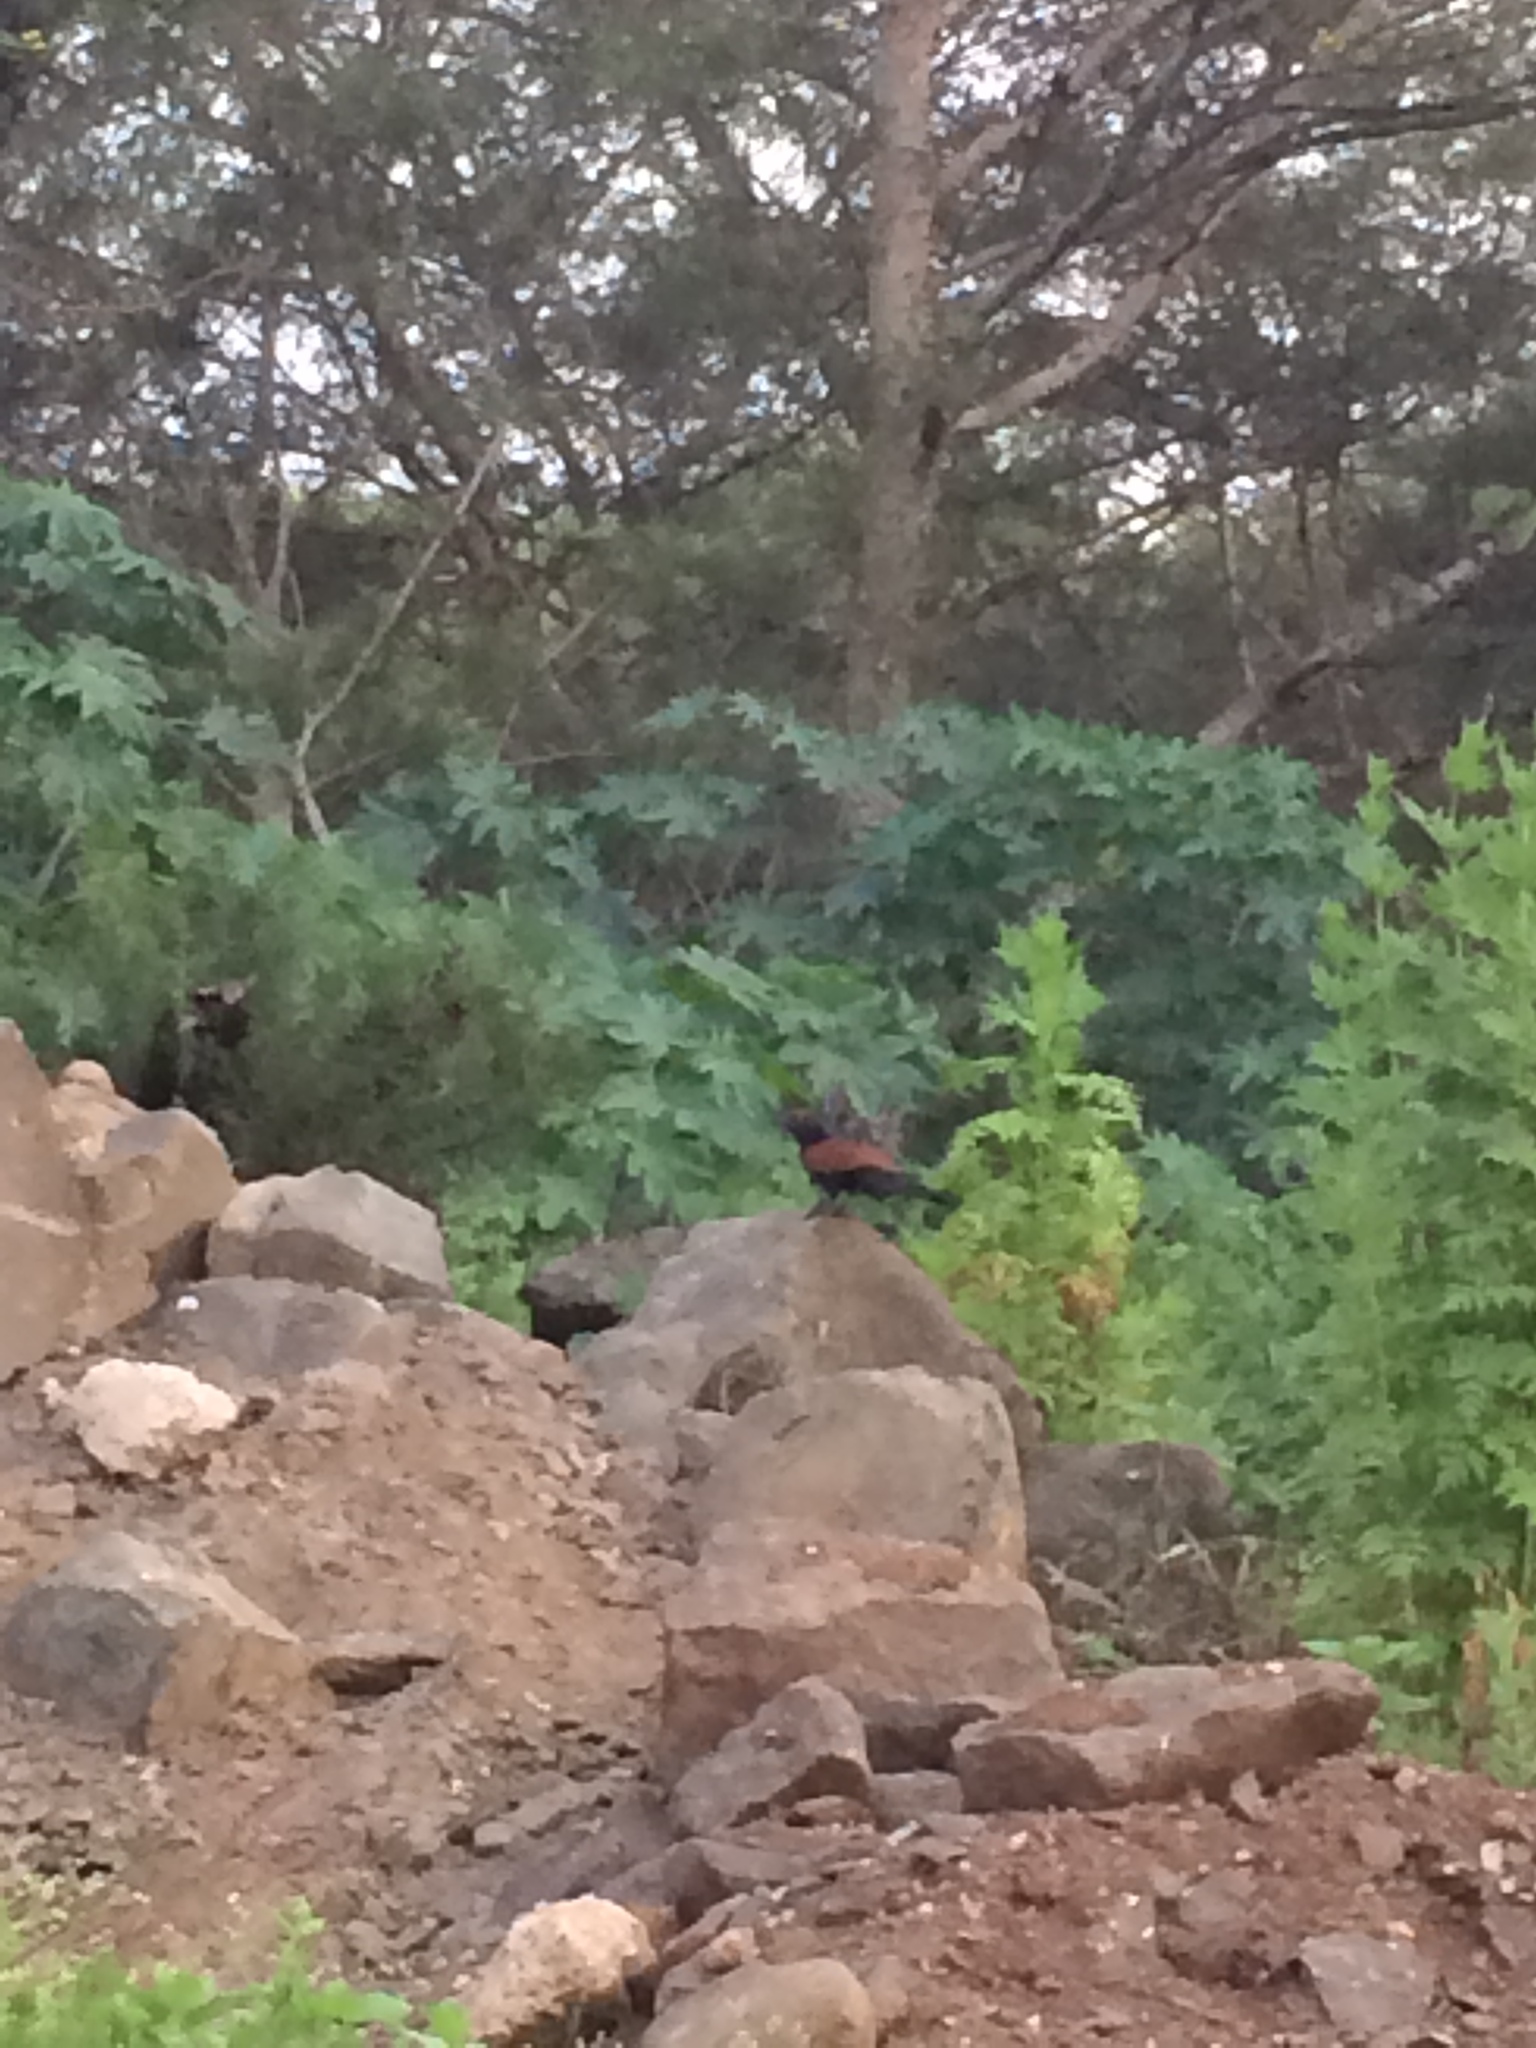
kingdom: Animalia
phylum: Chordata
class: Aves
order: Cuculiformes
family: Cuculidae
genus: Centropus
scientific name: Centropus sinensis
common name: Greater coucal
